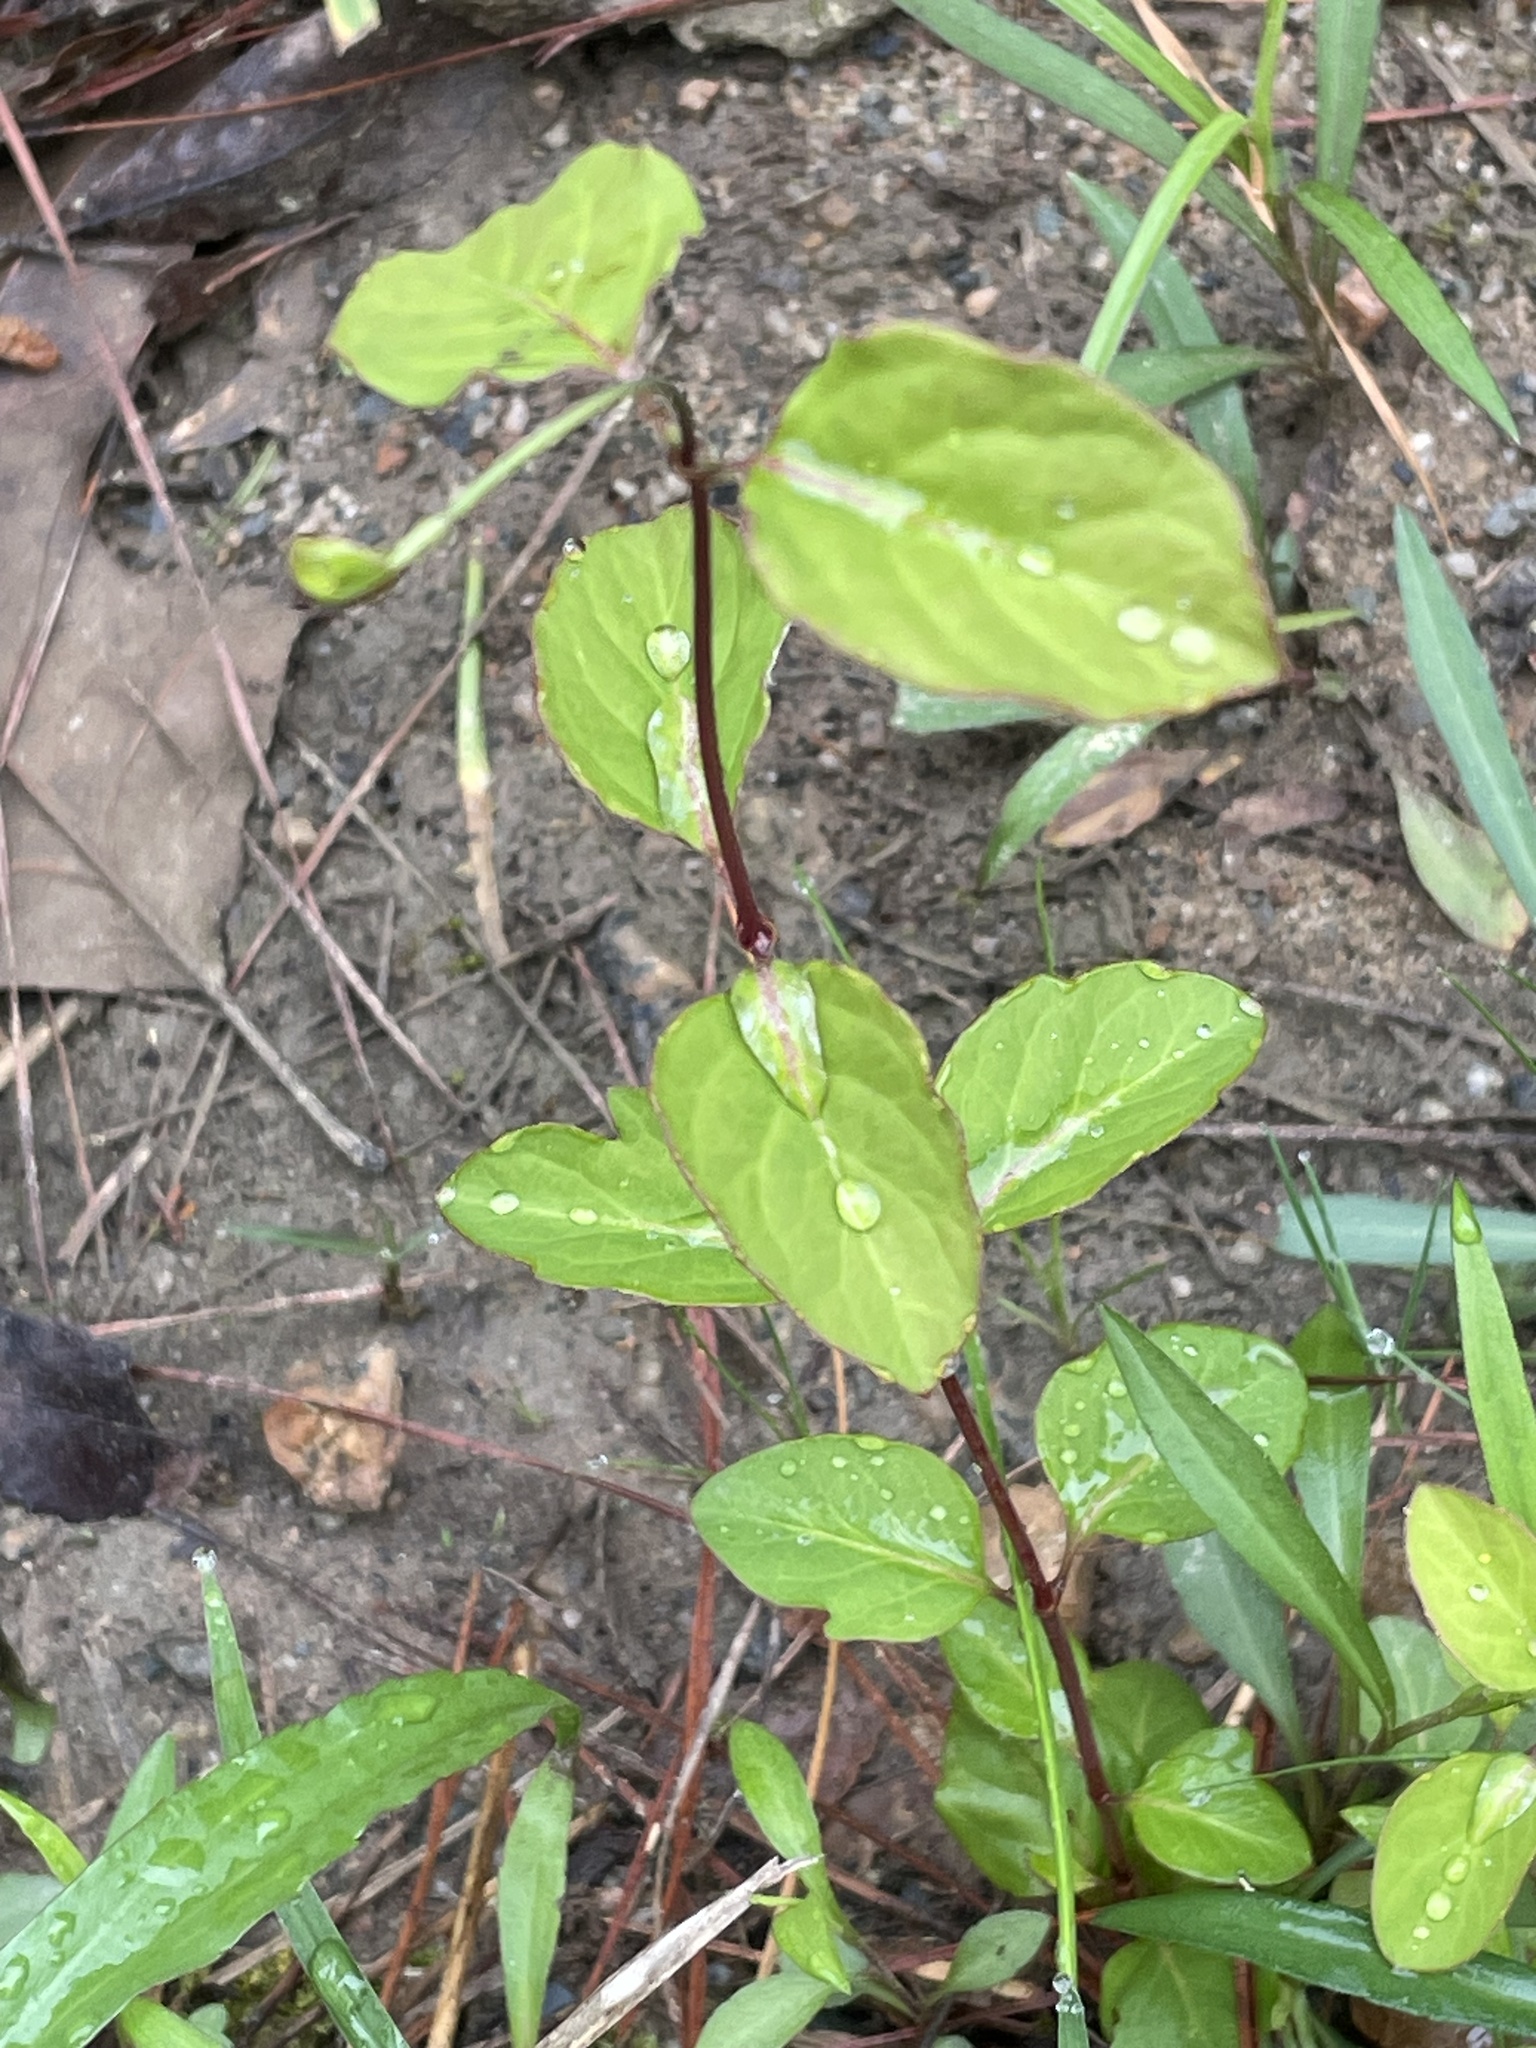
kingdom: Plantae
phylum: Tracheophyta
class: Magnoliopsida
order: Dipsacales
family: Caprifoliaceae
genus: Lonicera
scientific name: Lonicera japonica
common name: Japanese honeysuckle
